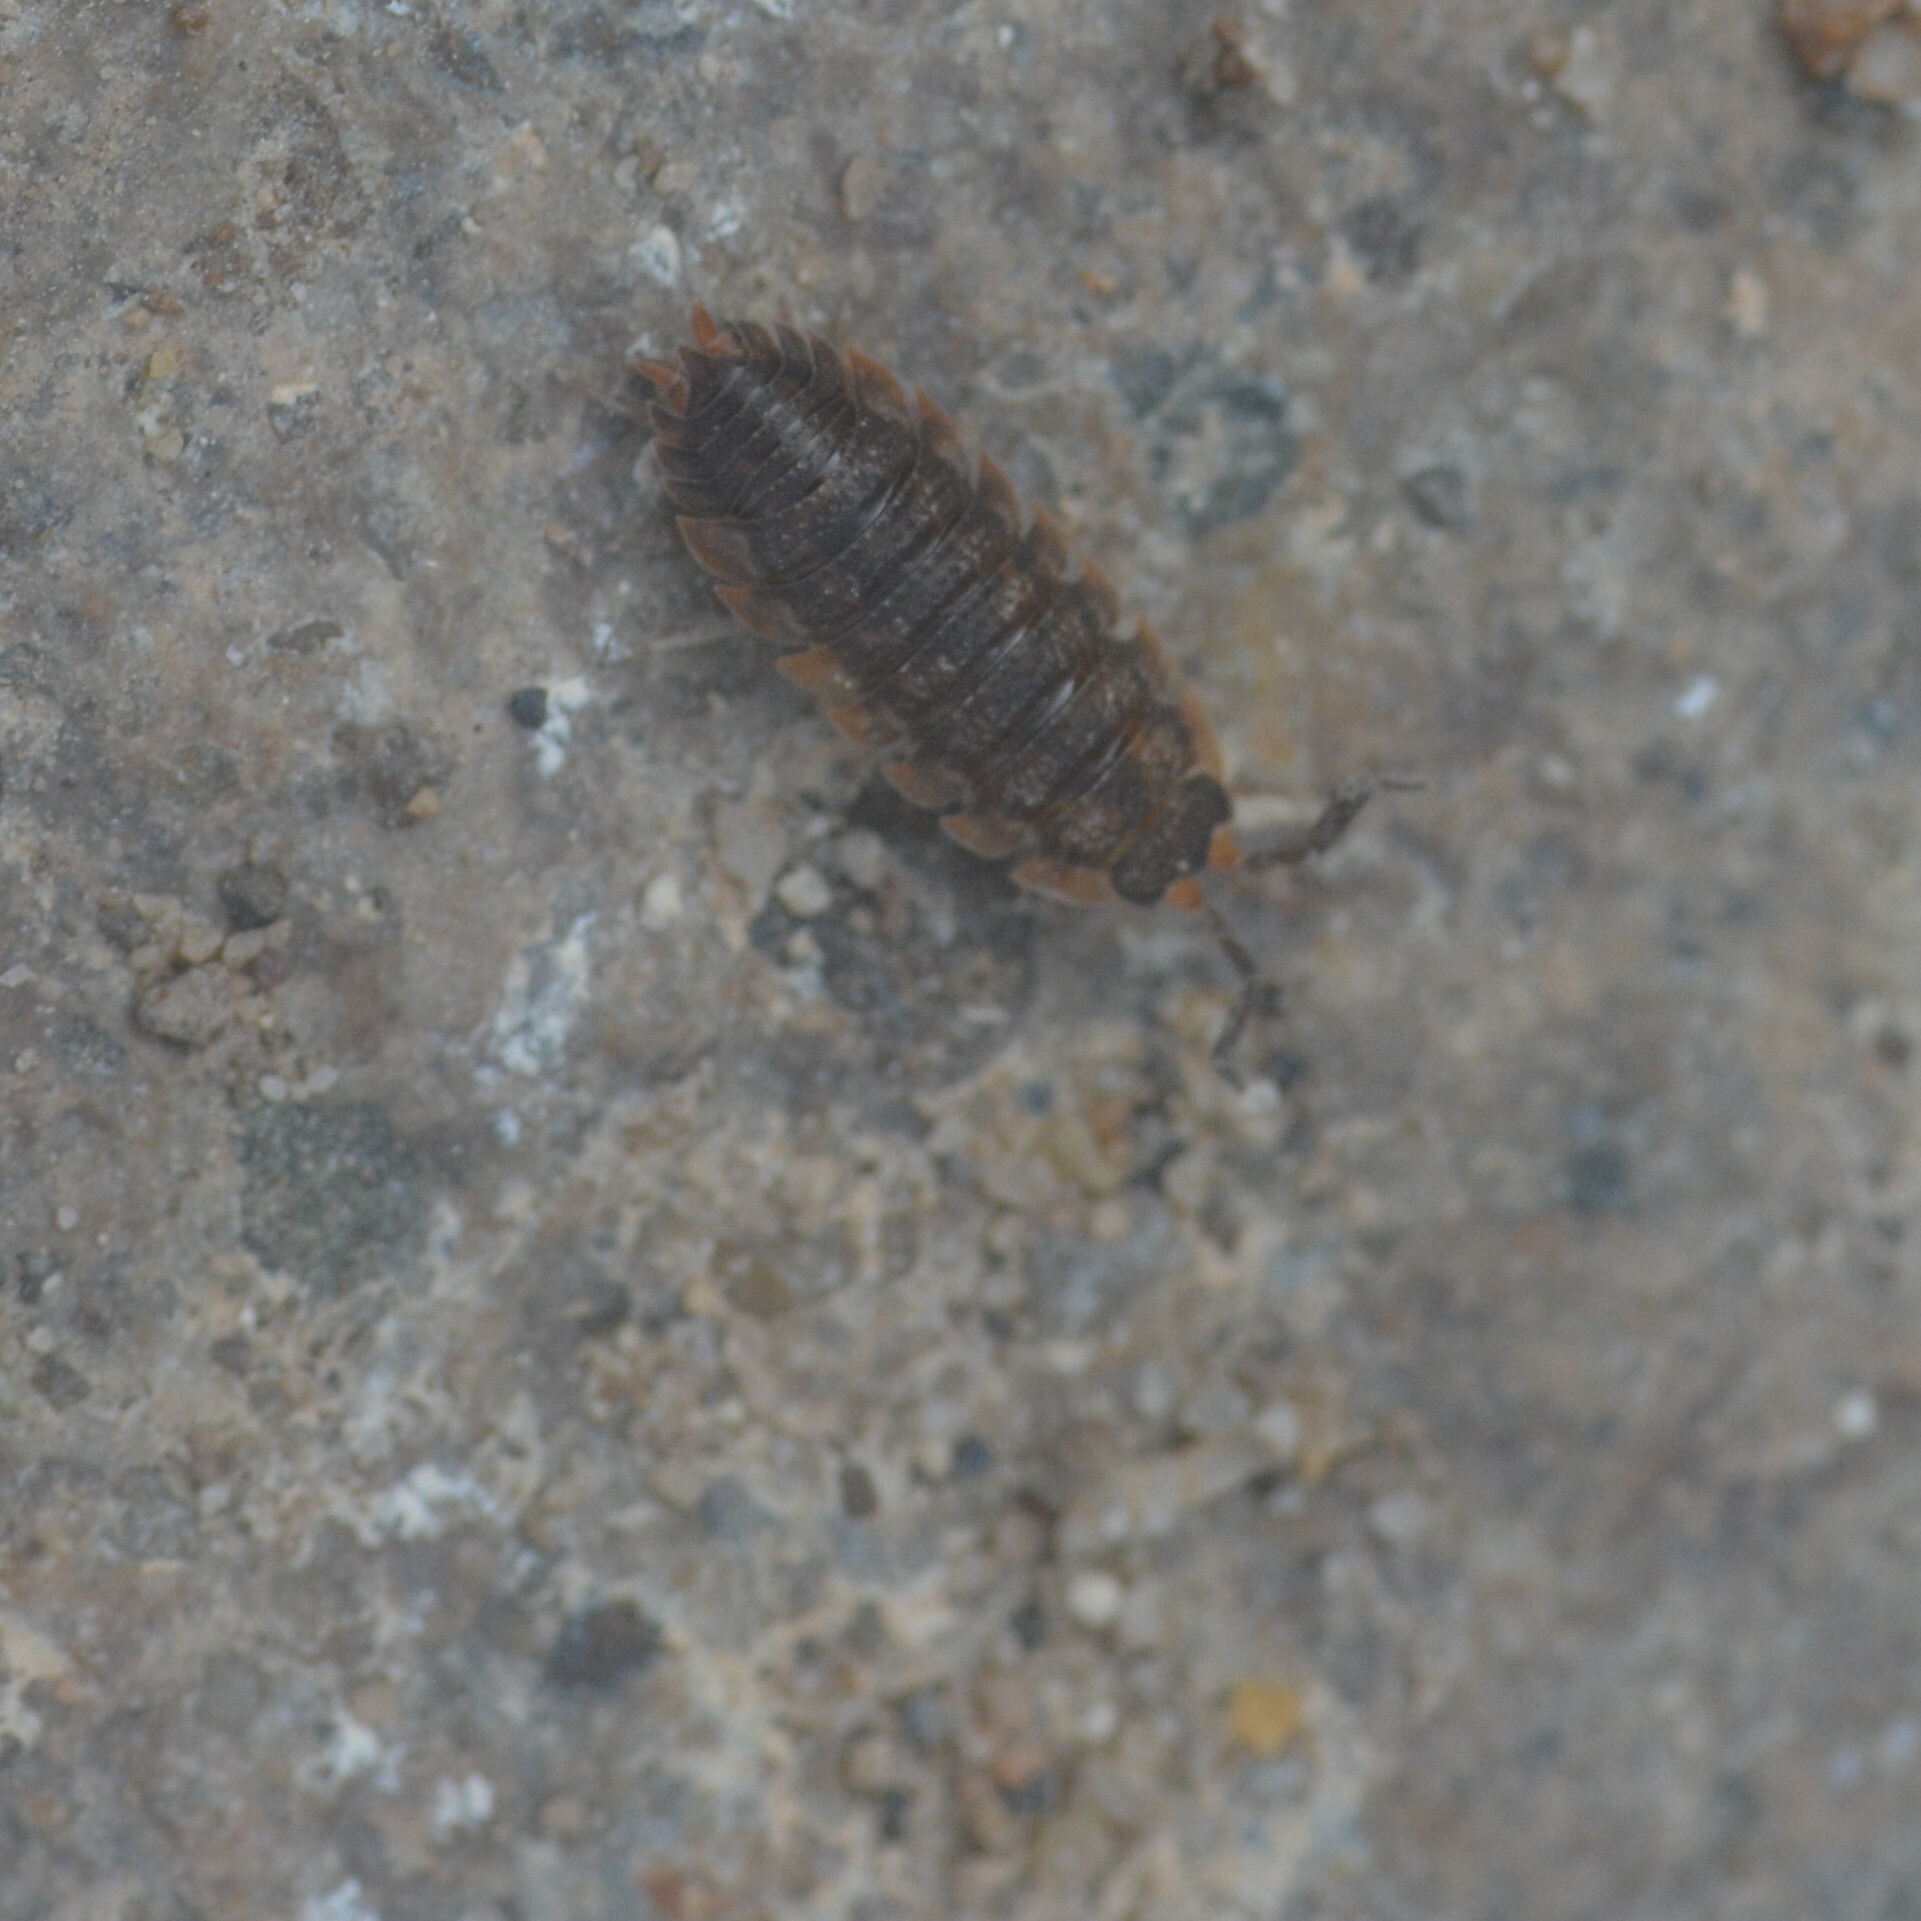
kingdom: Animalia
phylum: Arthropoda
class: Malacostraca
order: Isopoda
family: Porcellionidae
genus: Porcellio
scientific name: Porcellio scaber
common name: Common rough woodlouse
